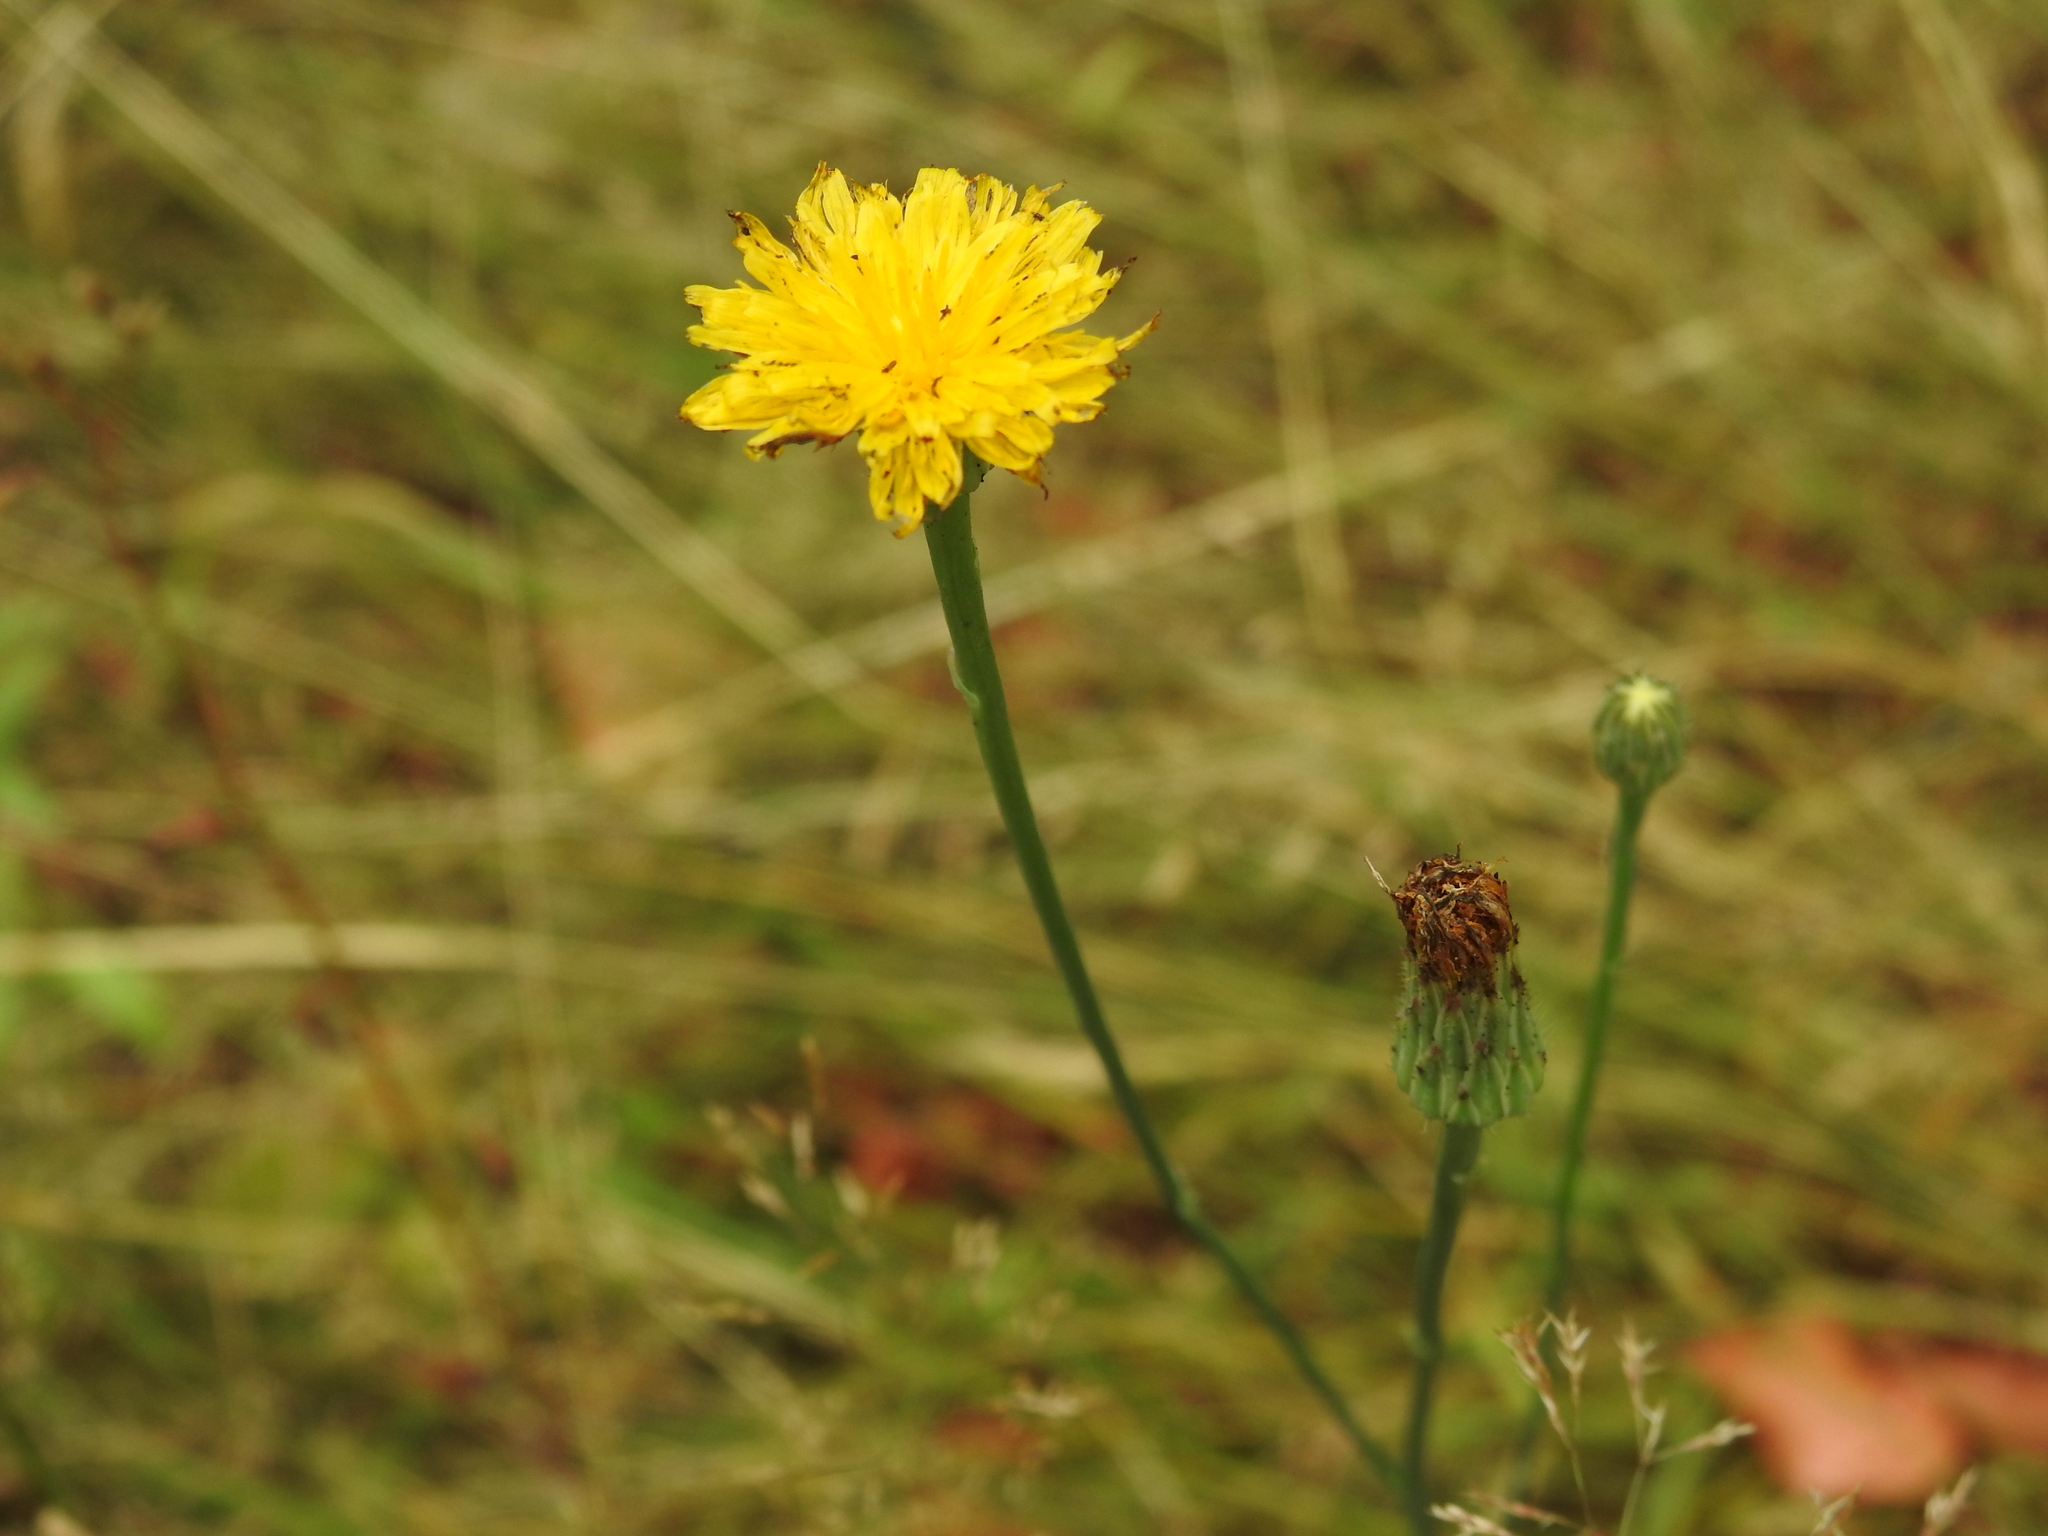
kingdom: Plantae
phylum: Tracheophyta
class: Magnoliopsida
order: Asterales
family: Asteraceae
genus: Hypochaeris
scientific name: Hypochaeris radicata
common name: Flatweed
